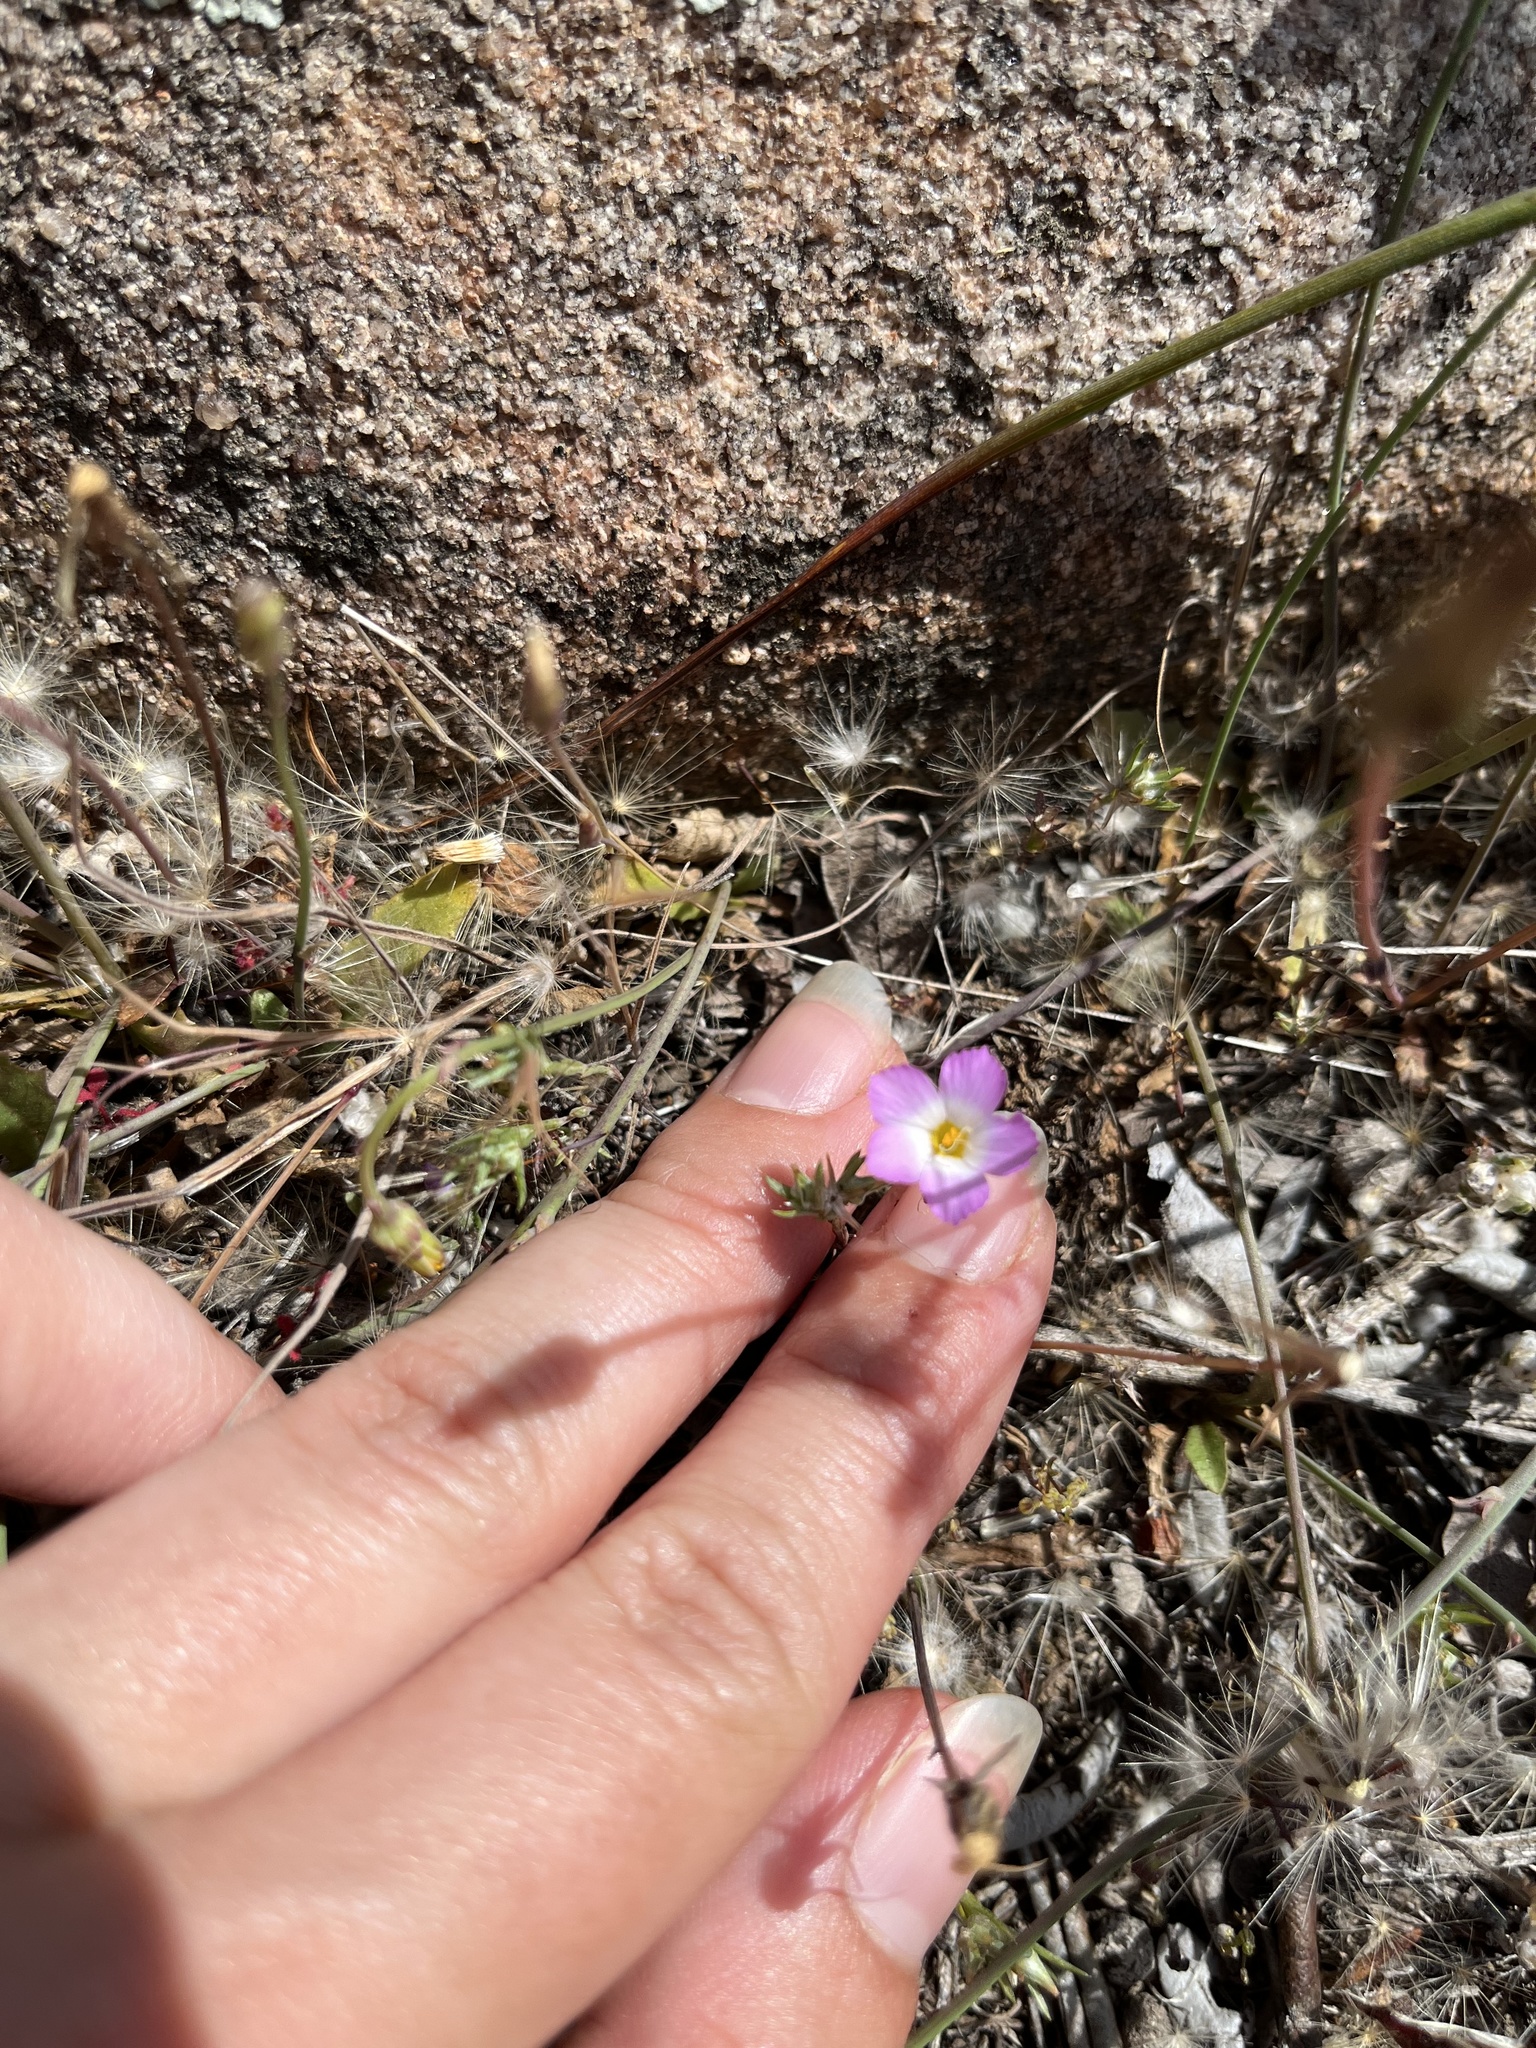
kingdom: Plantae
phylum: Tracheophyta
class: Magnoliopsida
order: Ericales
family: Polemoniaceae
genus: Linanthus
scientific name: Linanthus dianthiflorus
